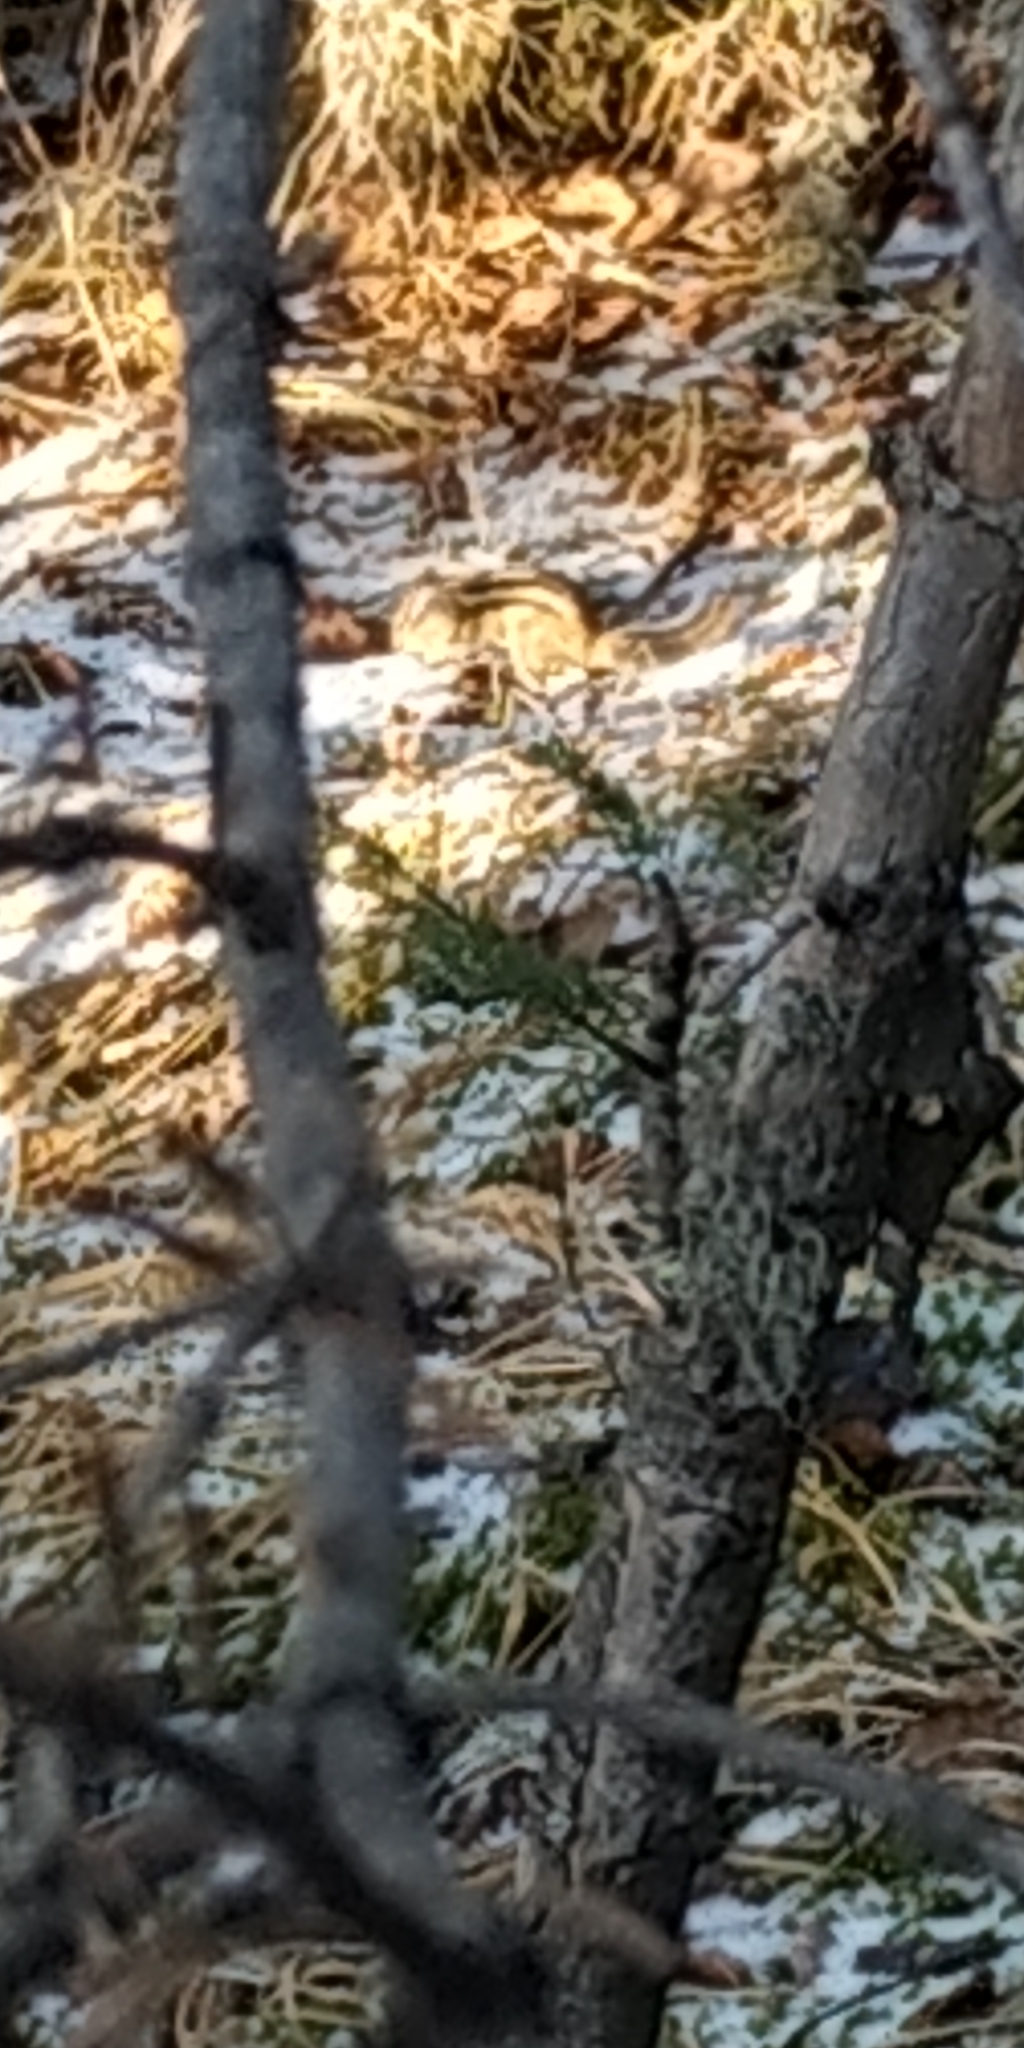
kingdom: Animalia
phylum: Chordata
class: Mammalia
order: Rodentia
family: Sciuridae
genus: Tamias
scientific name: Tamias sibiricus
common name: Siberian chipmunk
